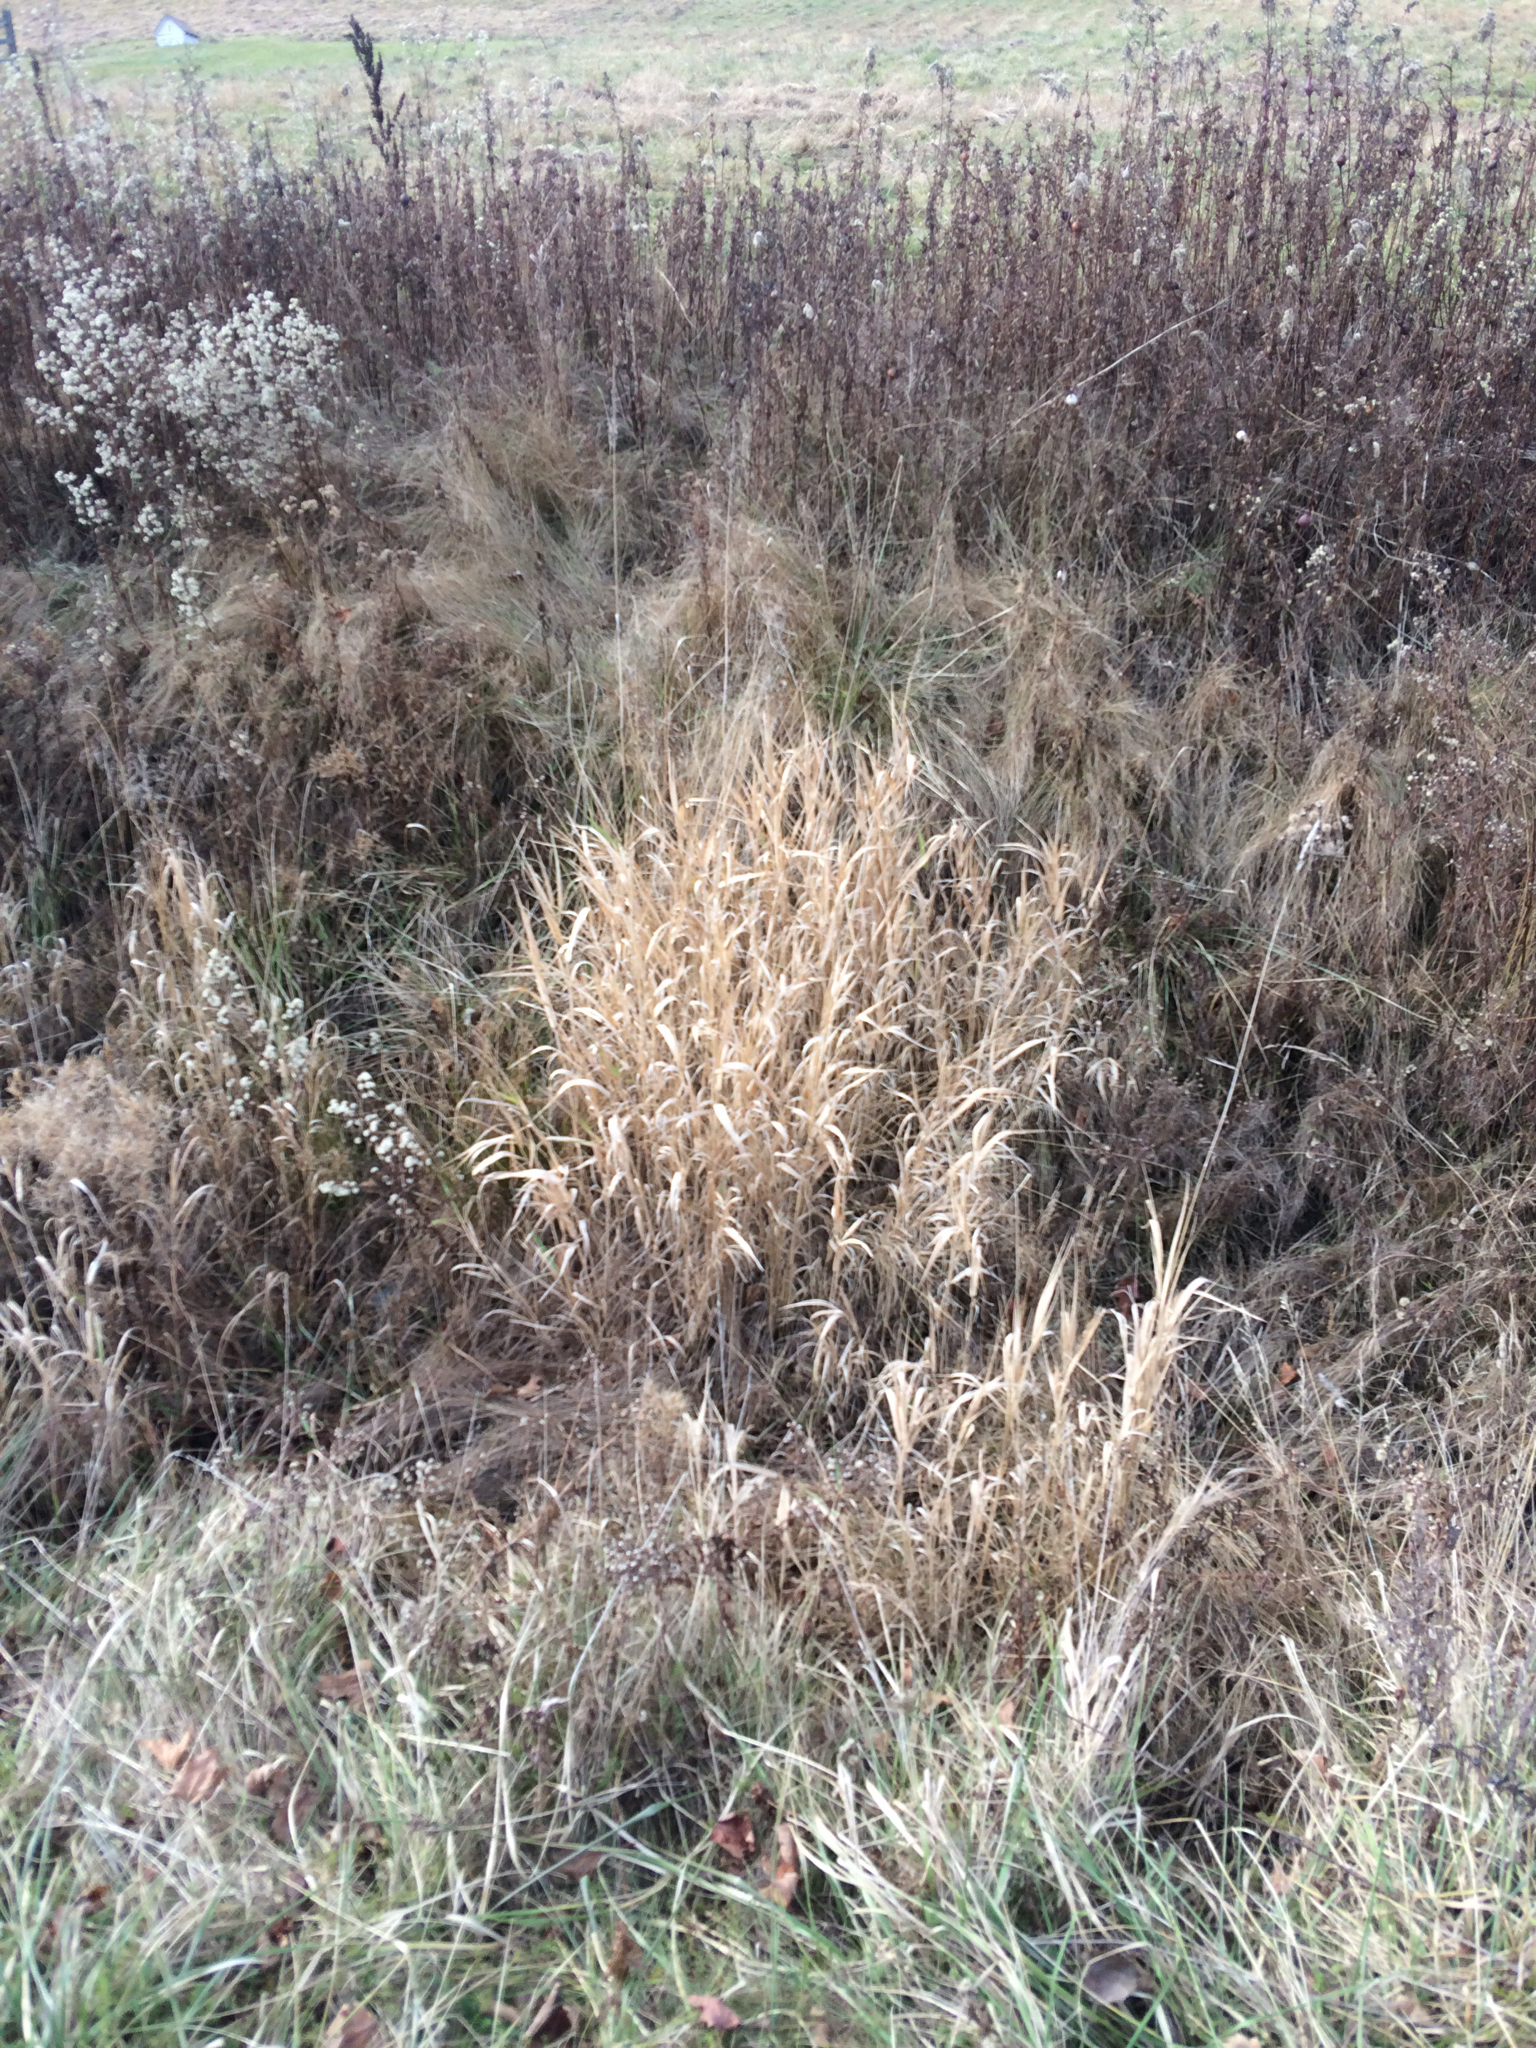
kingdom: Plantae
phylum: Tracheophyta
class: Liliopsida
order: Poales
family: Poaceae
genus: Phalaris
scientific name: Phalaris arundinacea
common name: Reed canary-grass
